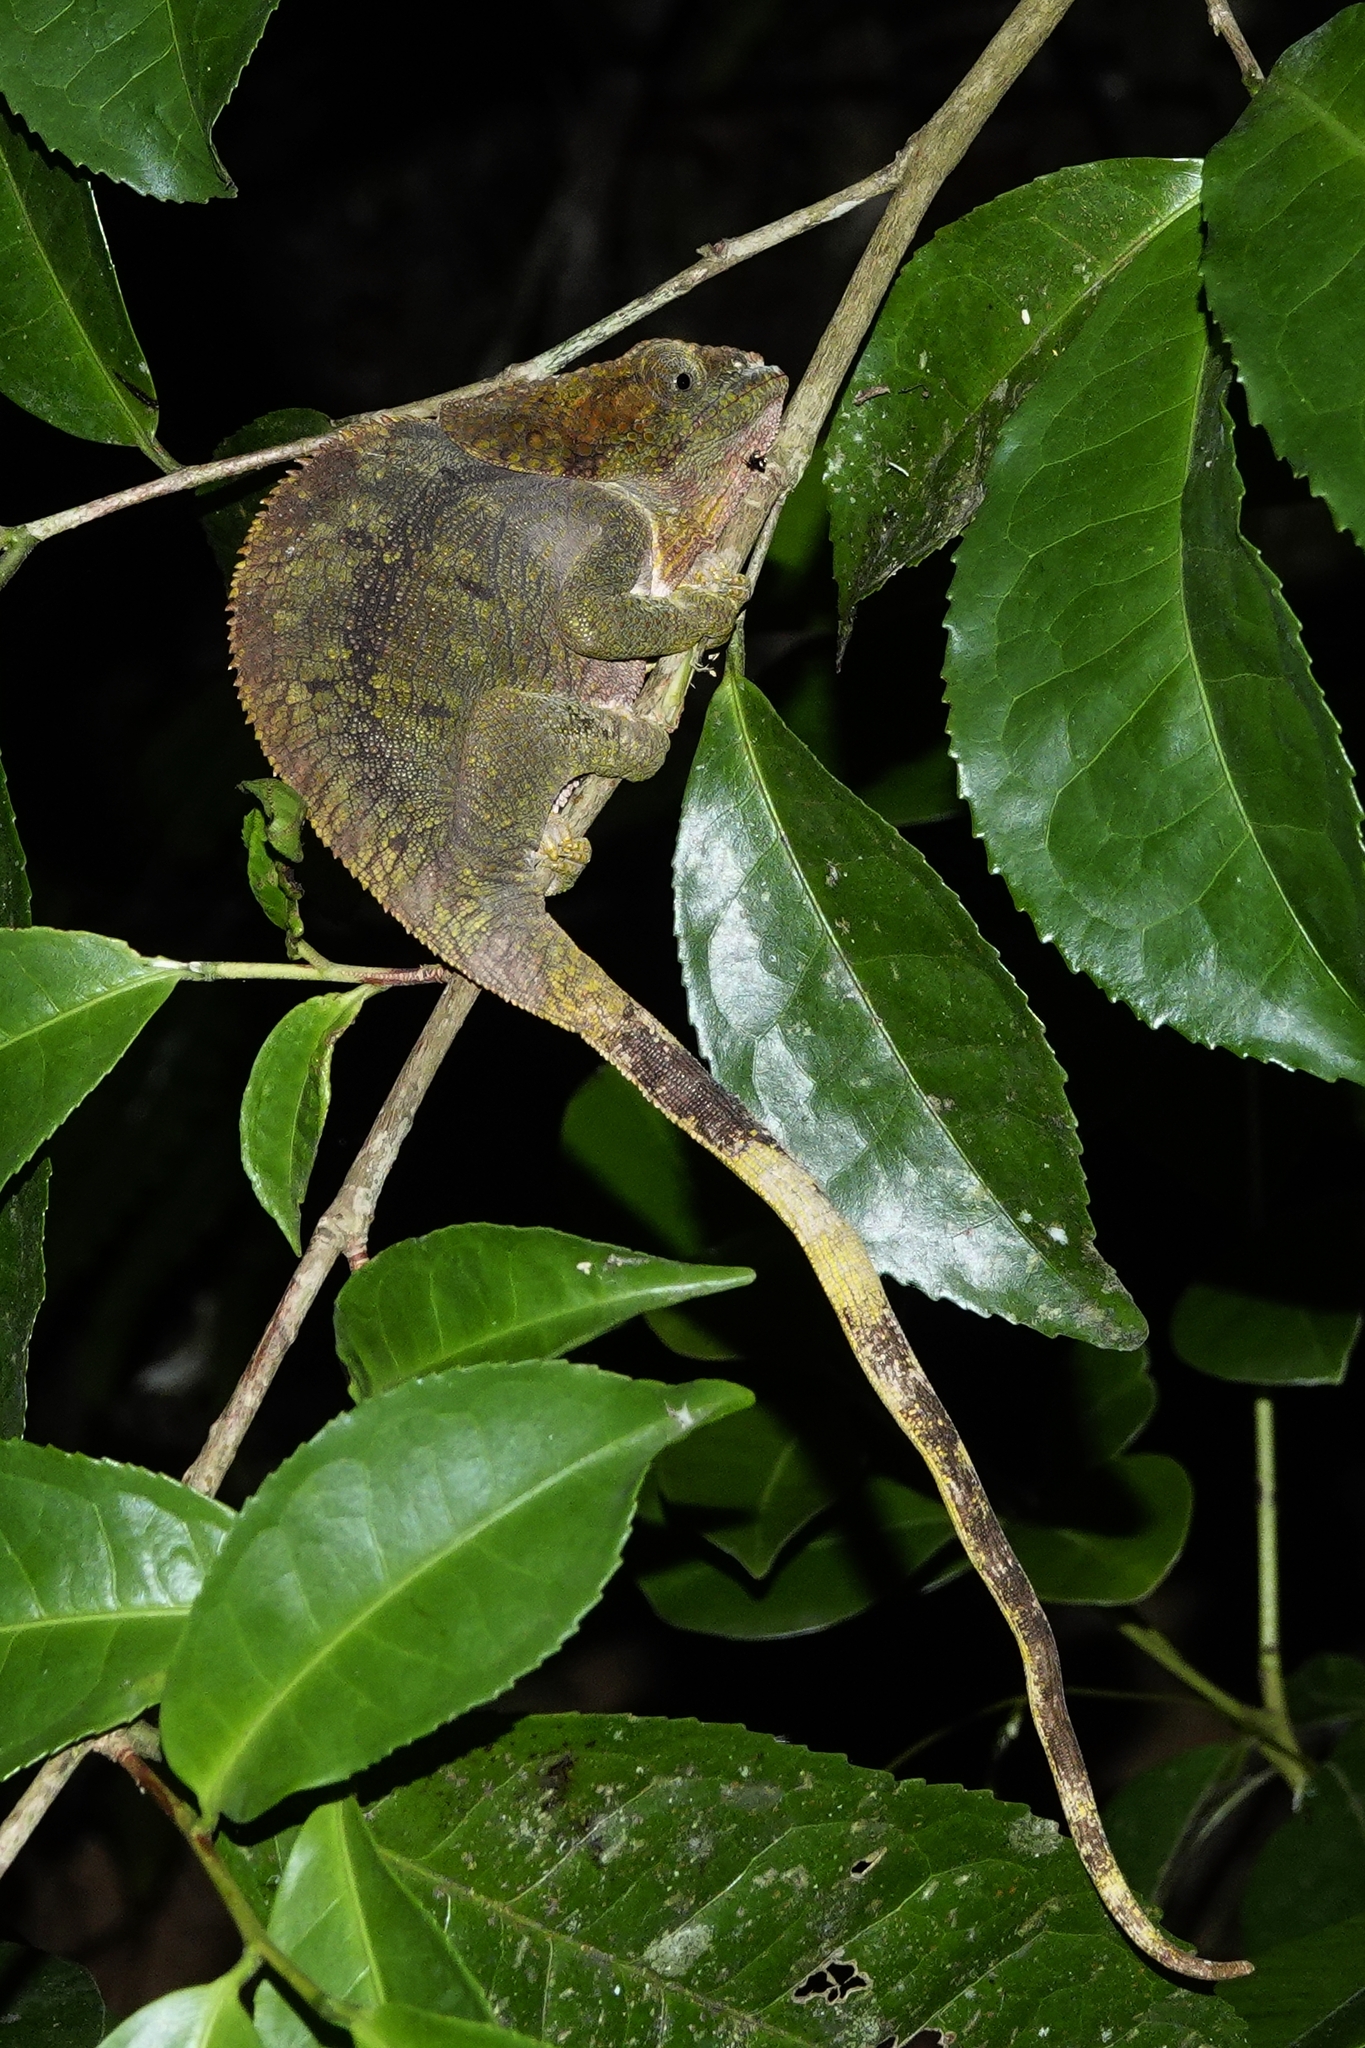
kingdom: Animalia
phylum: Chordata
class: Squamata
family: Chamaeleonidae
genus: Calumma
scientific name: Calumma brevicorne
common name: Short-horned chameleon
